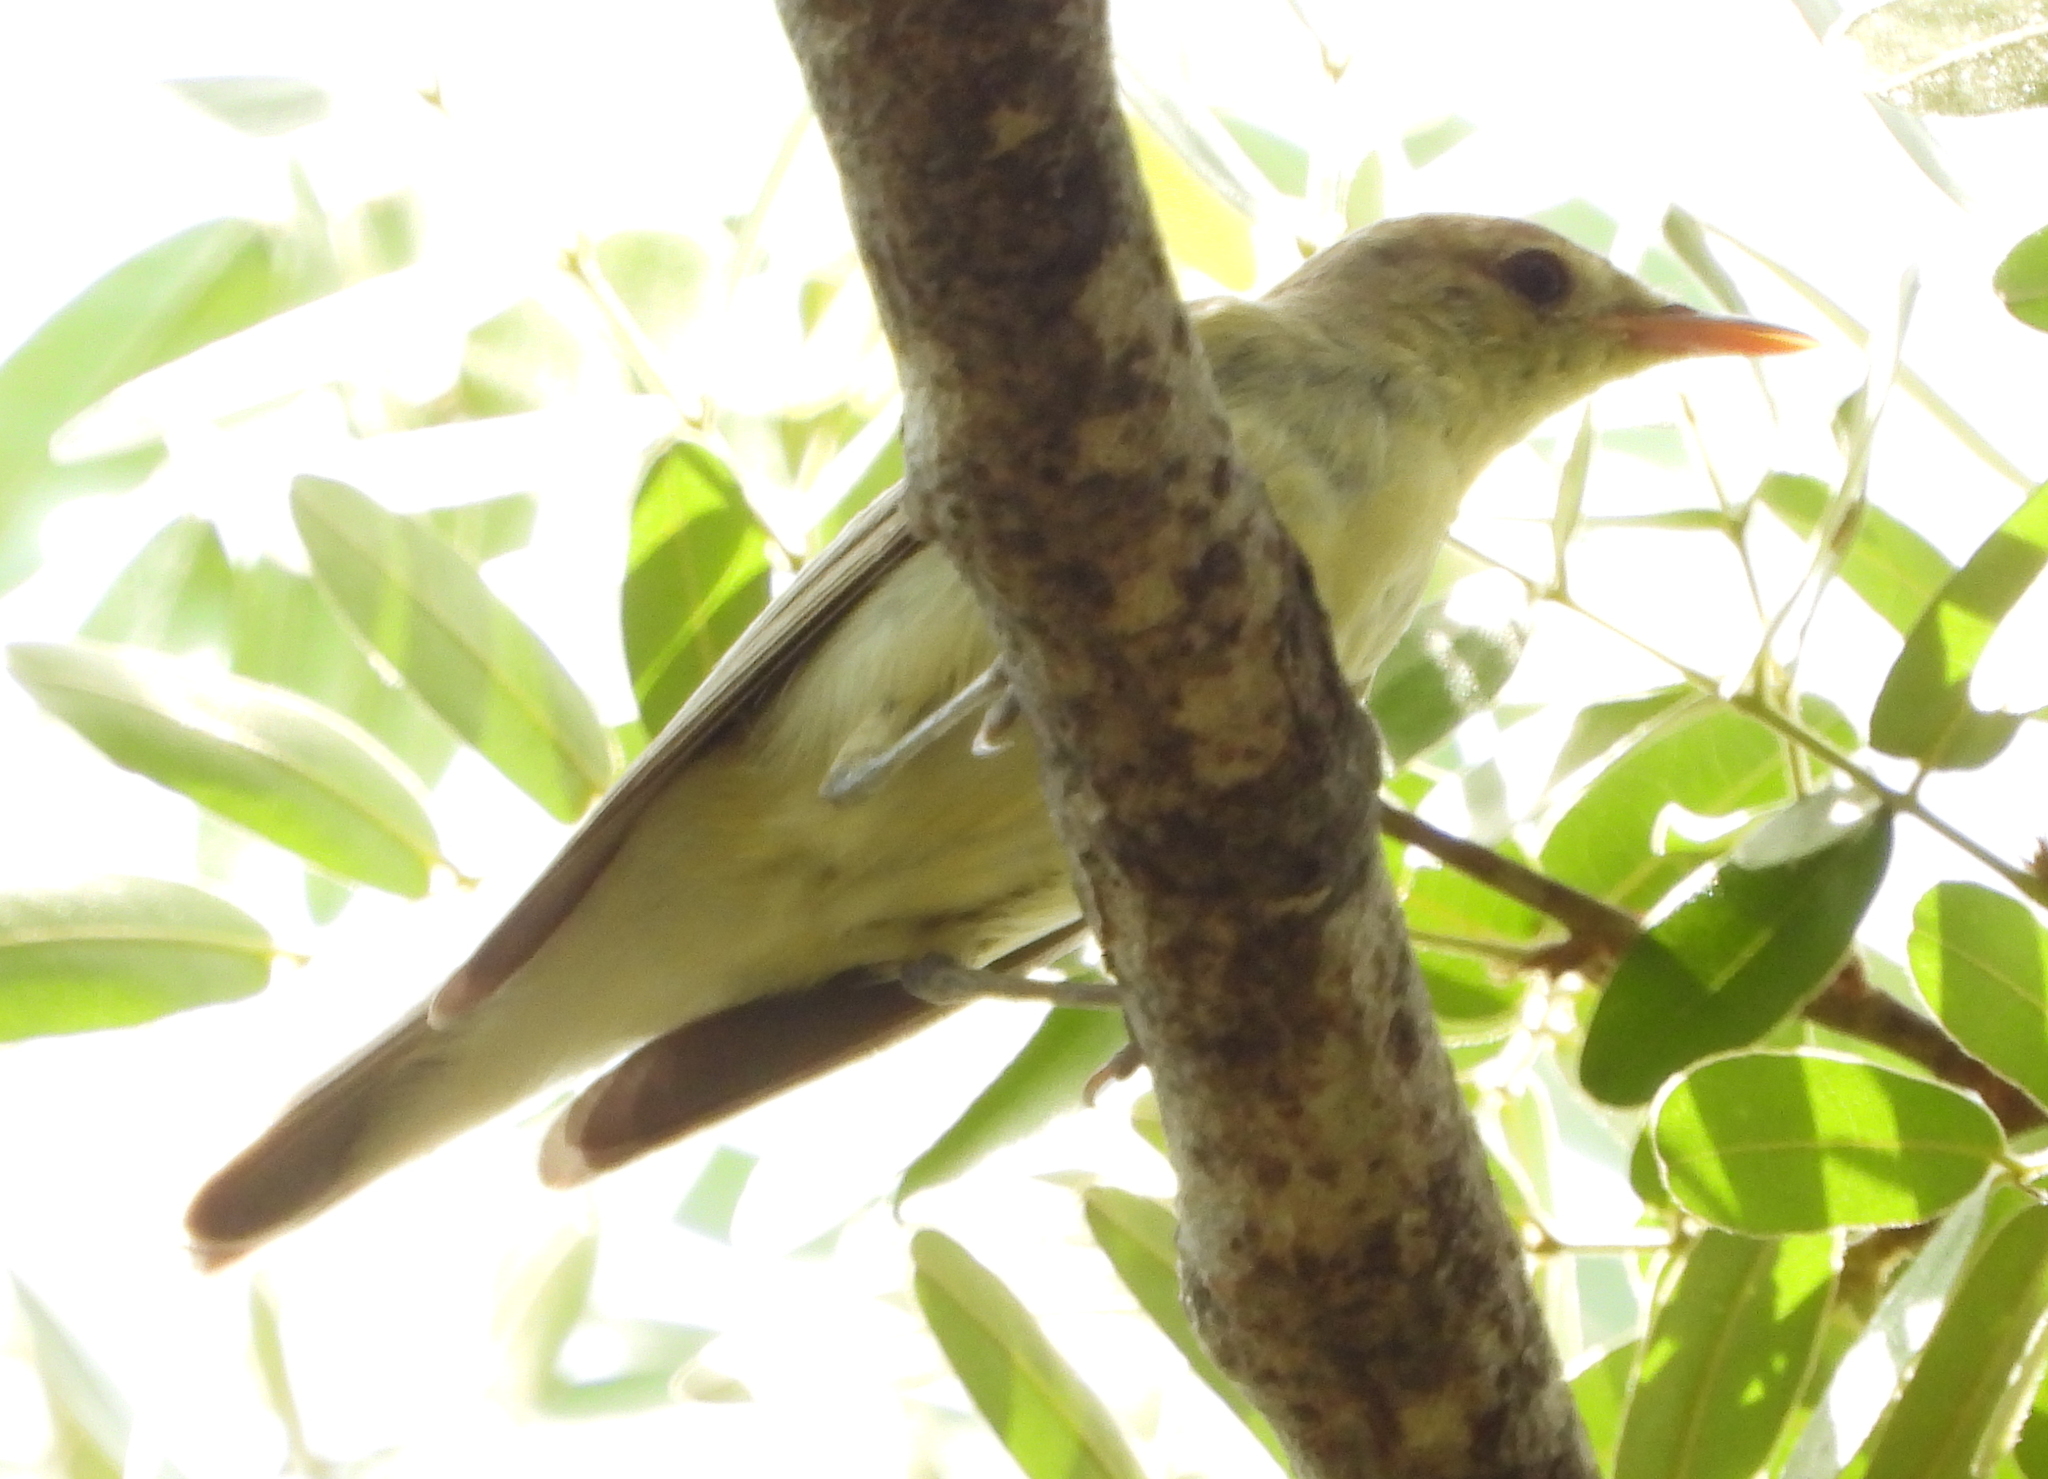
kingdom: Animalia
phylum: Chordata
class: Aves
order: Passeriformes
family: Acrocephalidae
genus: Hippolais
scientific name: Hippolais icterina
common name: Icterine warbler
